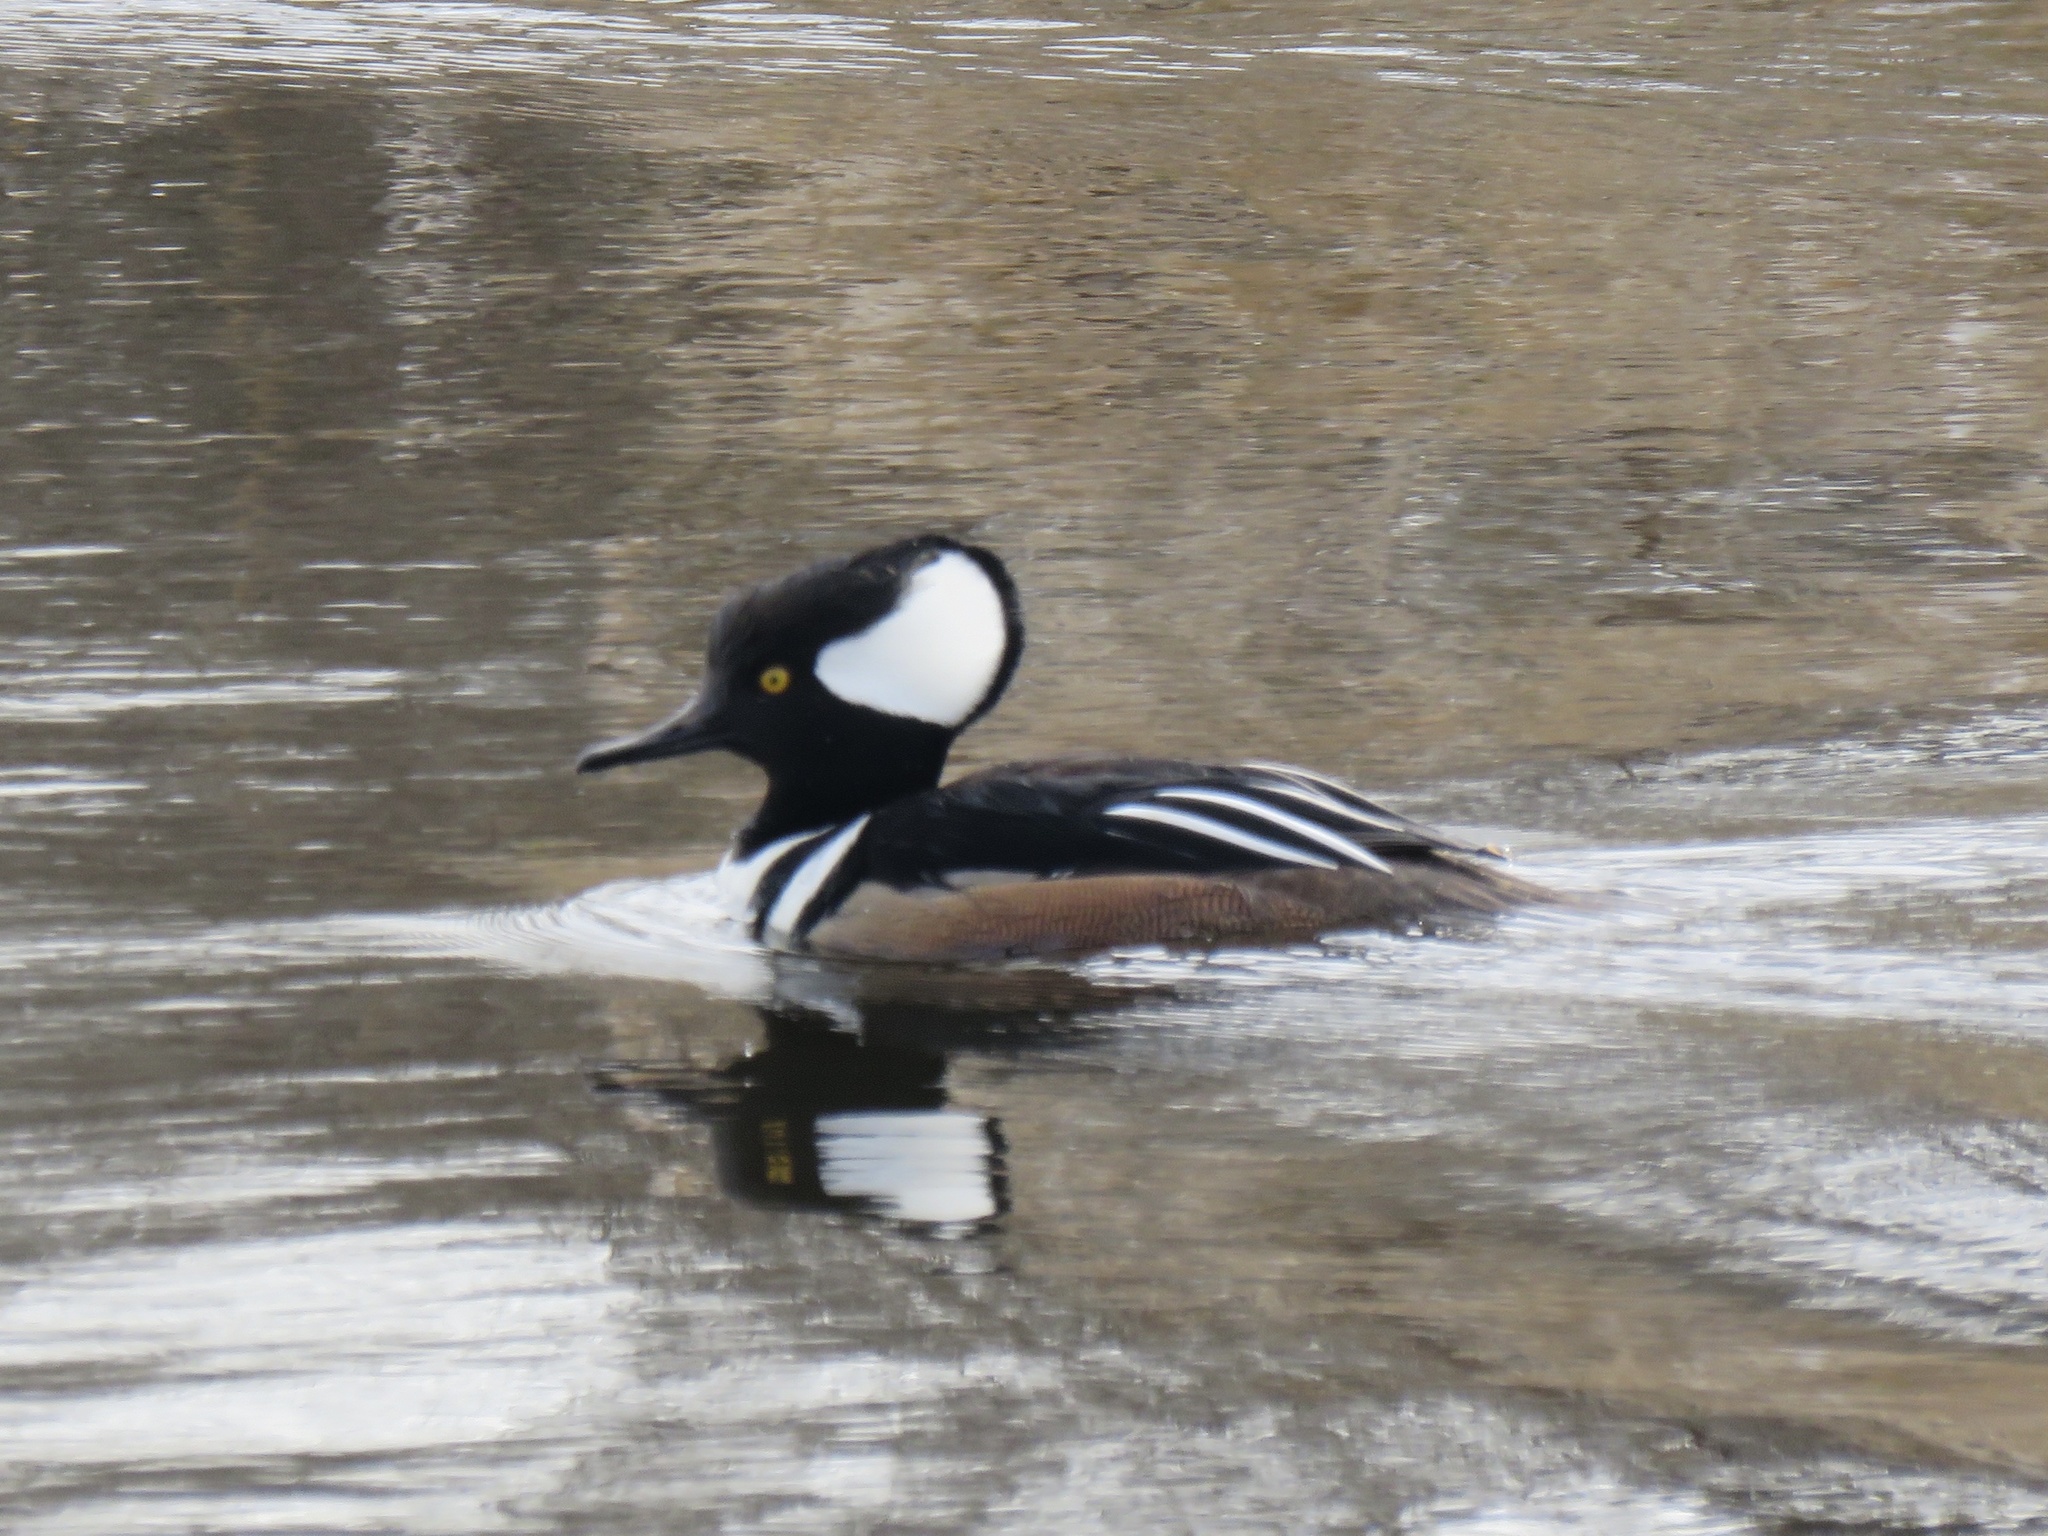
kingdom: Animalia
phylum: Chordata
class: Aves
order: Anseriformes
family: Anatidae
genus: Lophodytes
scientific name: Lophodytes cucullatus
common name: Hooded merganser
